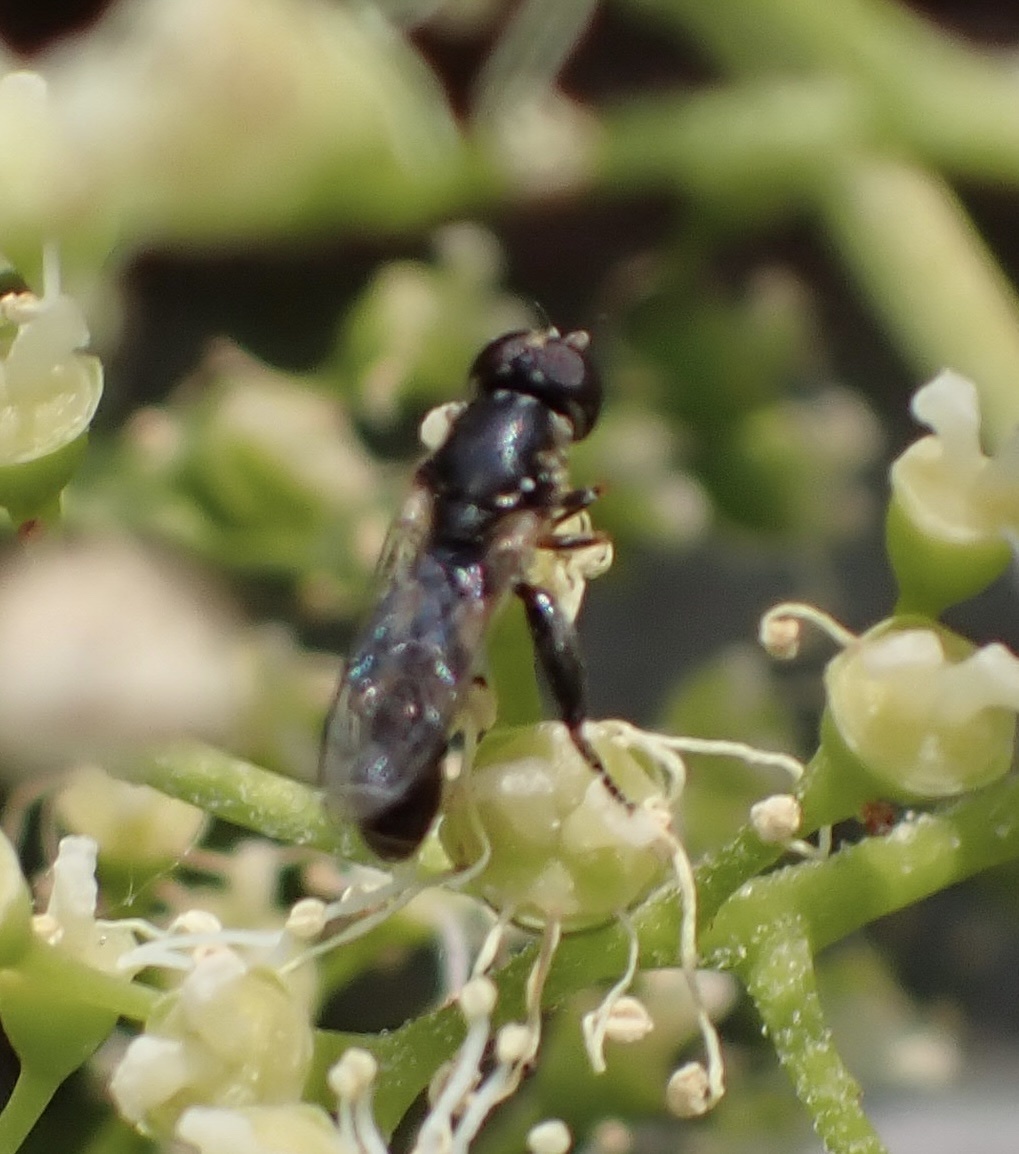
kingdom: Animalia
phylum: Arthropoda
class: Insecta
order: Diptera
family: Syrphidae
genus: Syritta
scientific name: Syritta pipiens
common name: Hover fly
